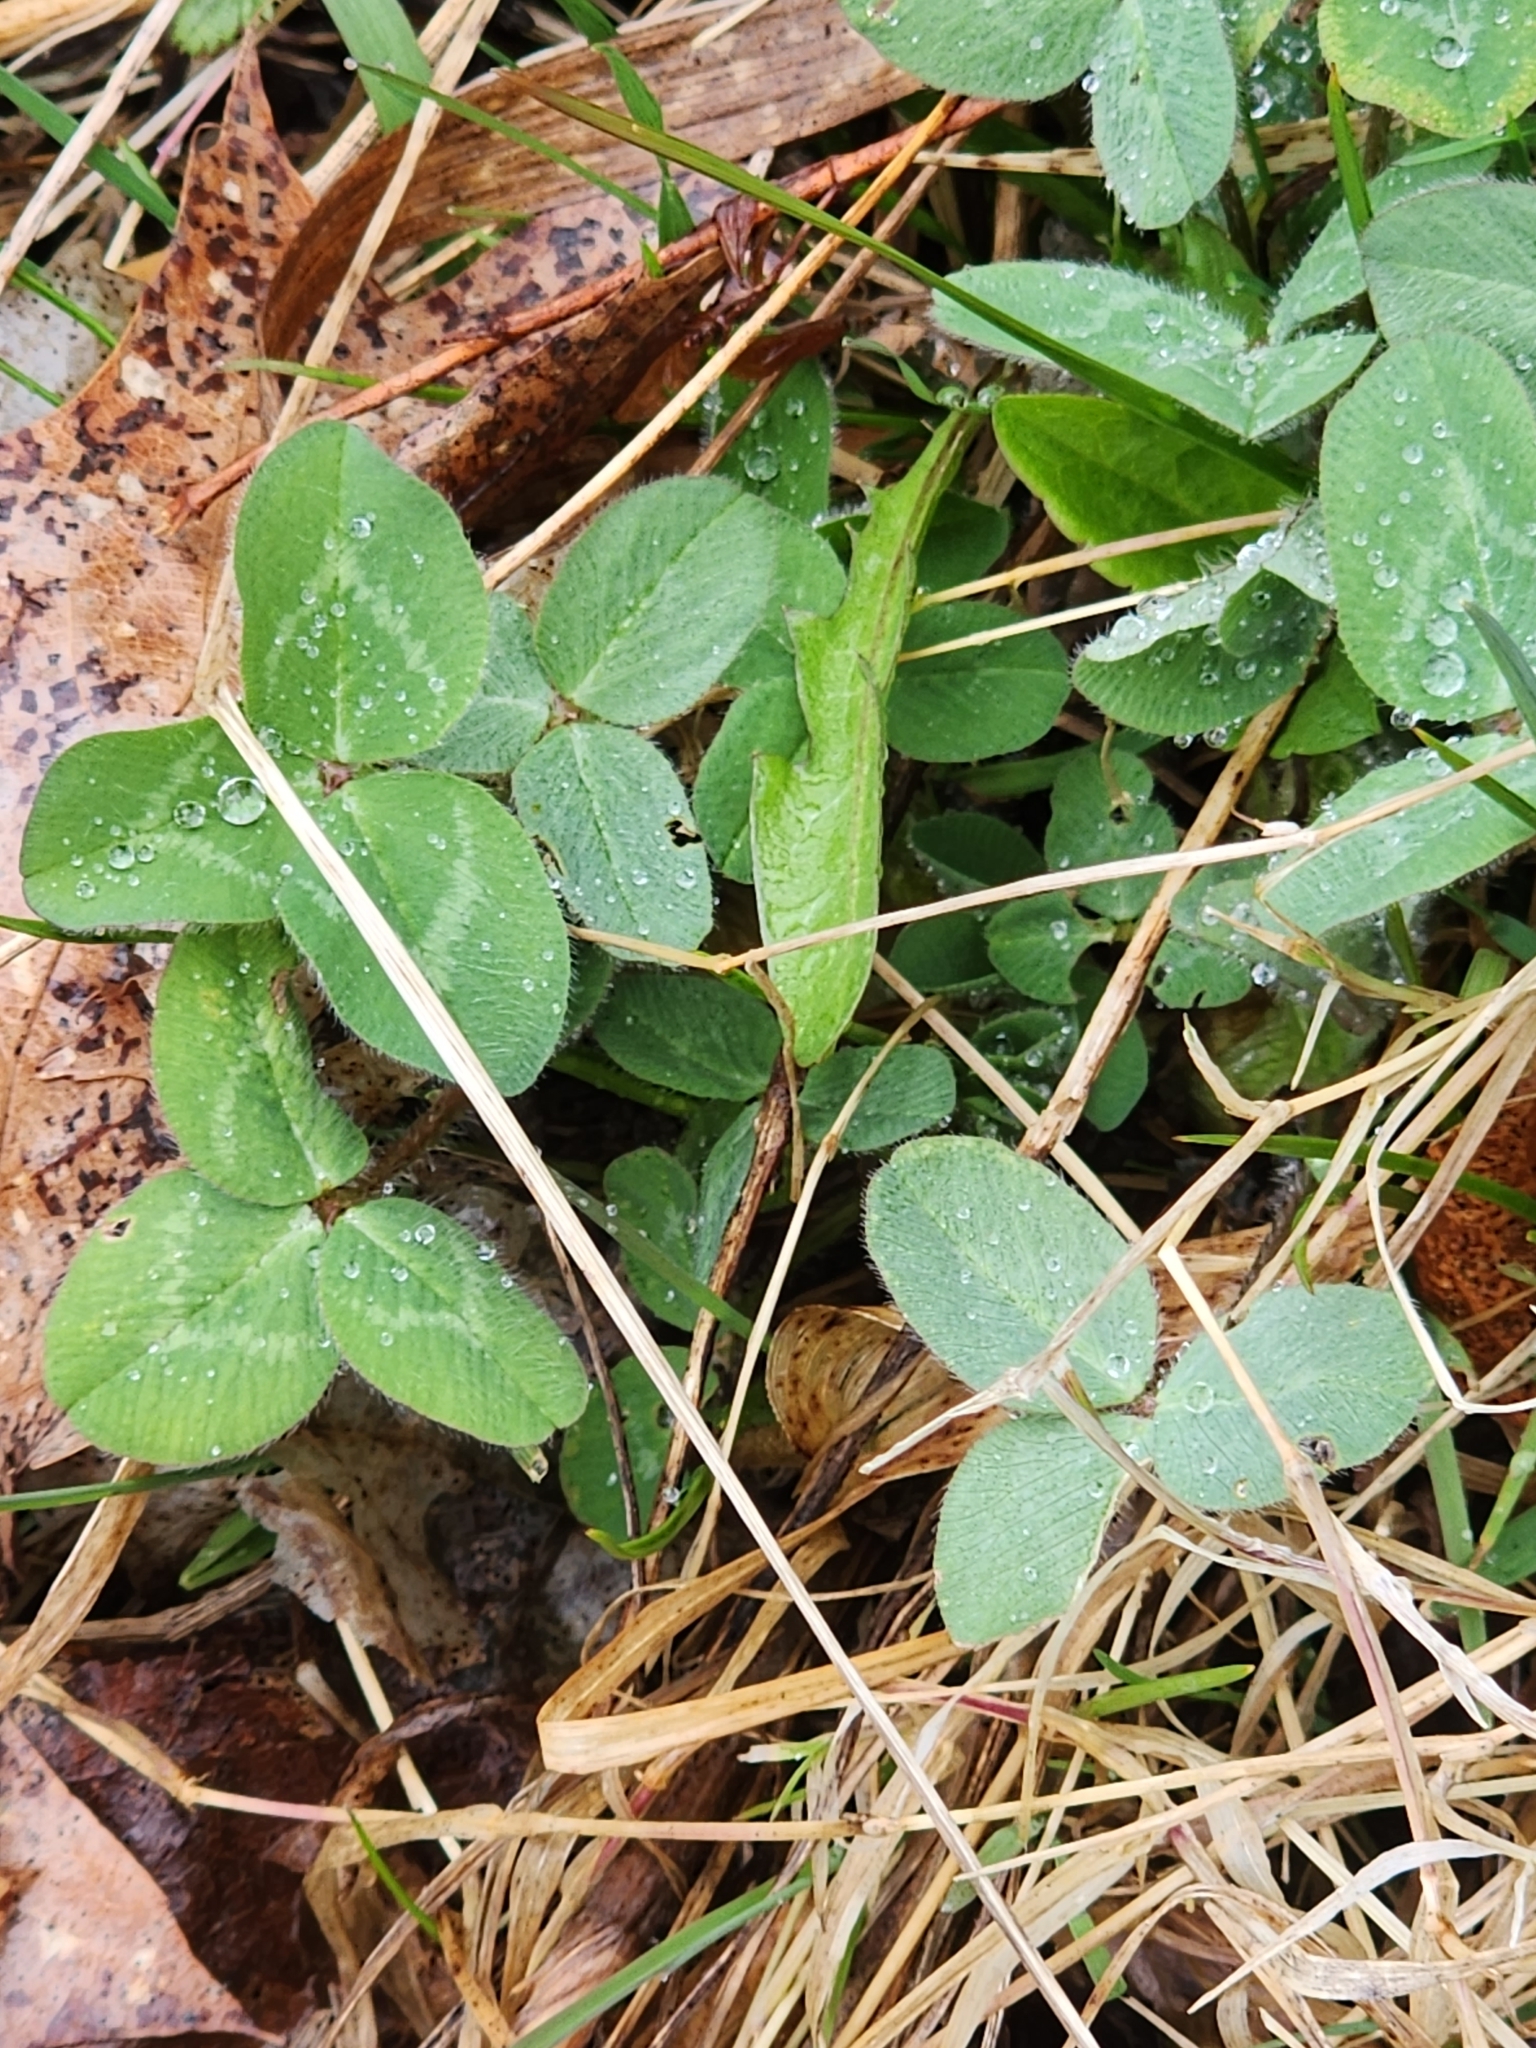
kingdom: Plantae
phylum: Tracheophyta
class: Magnoliopsida
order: Fabales
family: Fabaceae
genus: Trifolium
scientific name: Trifolium pratense
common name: Red clover
